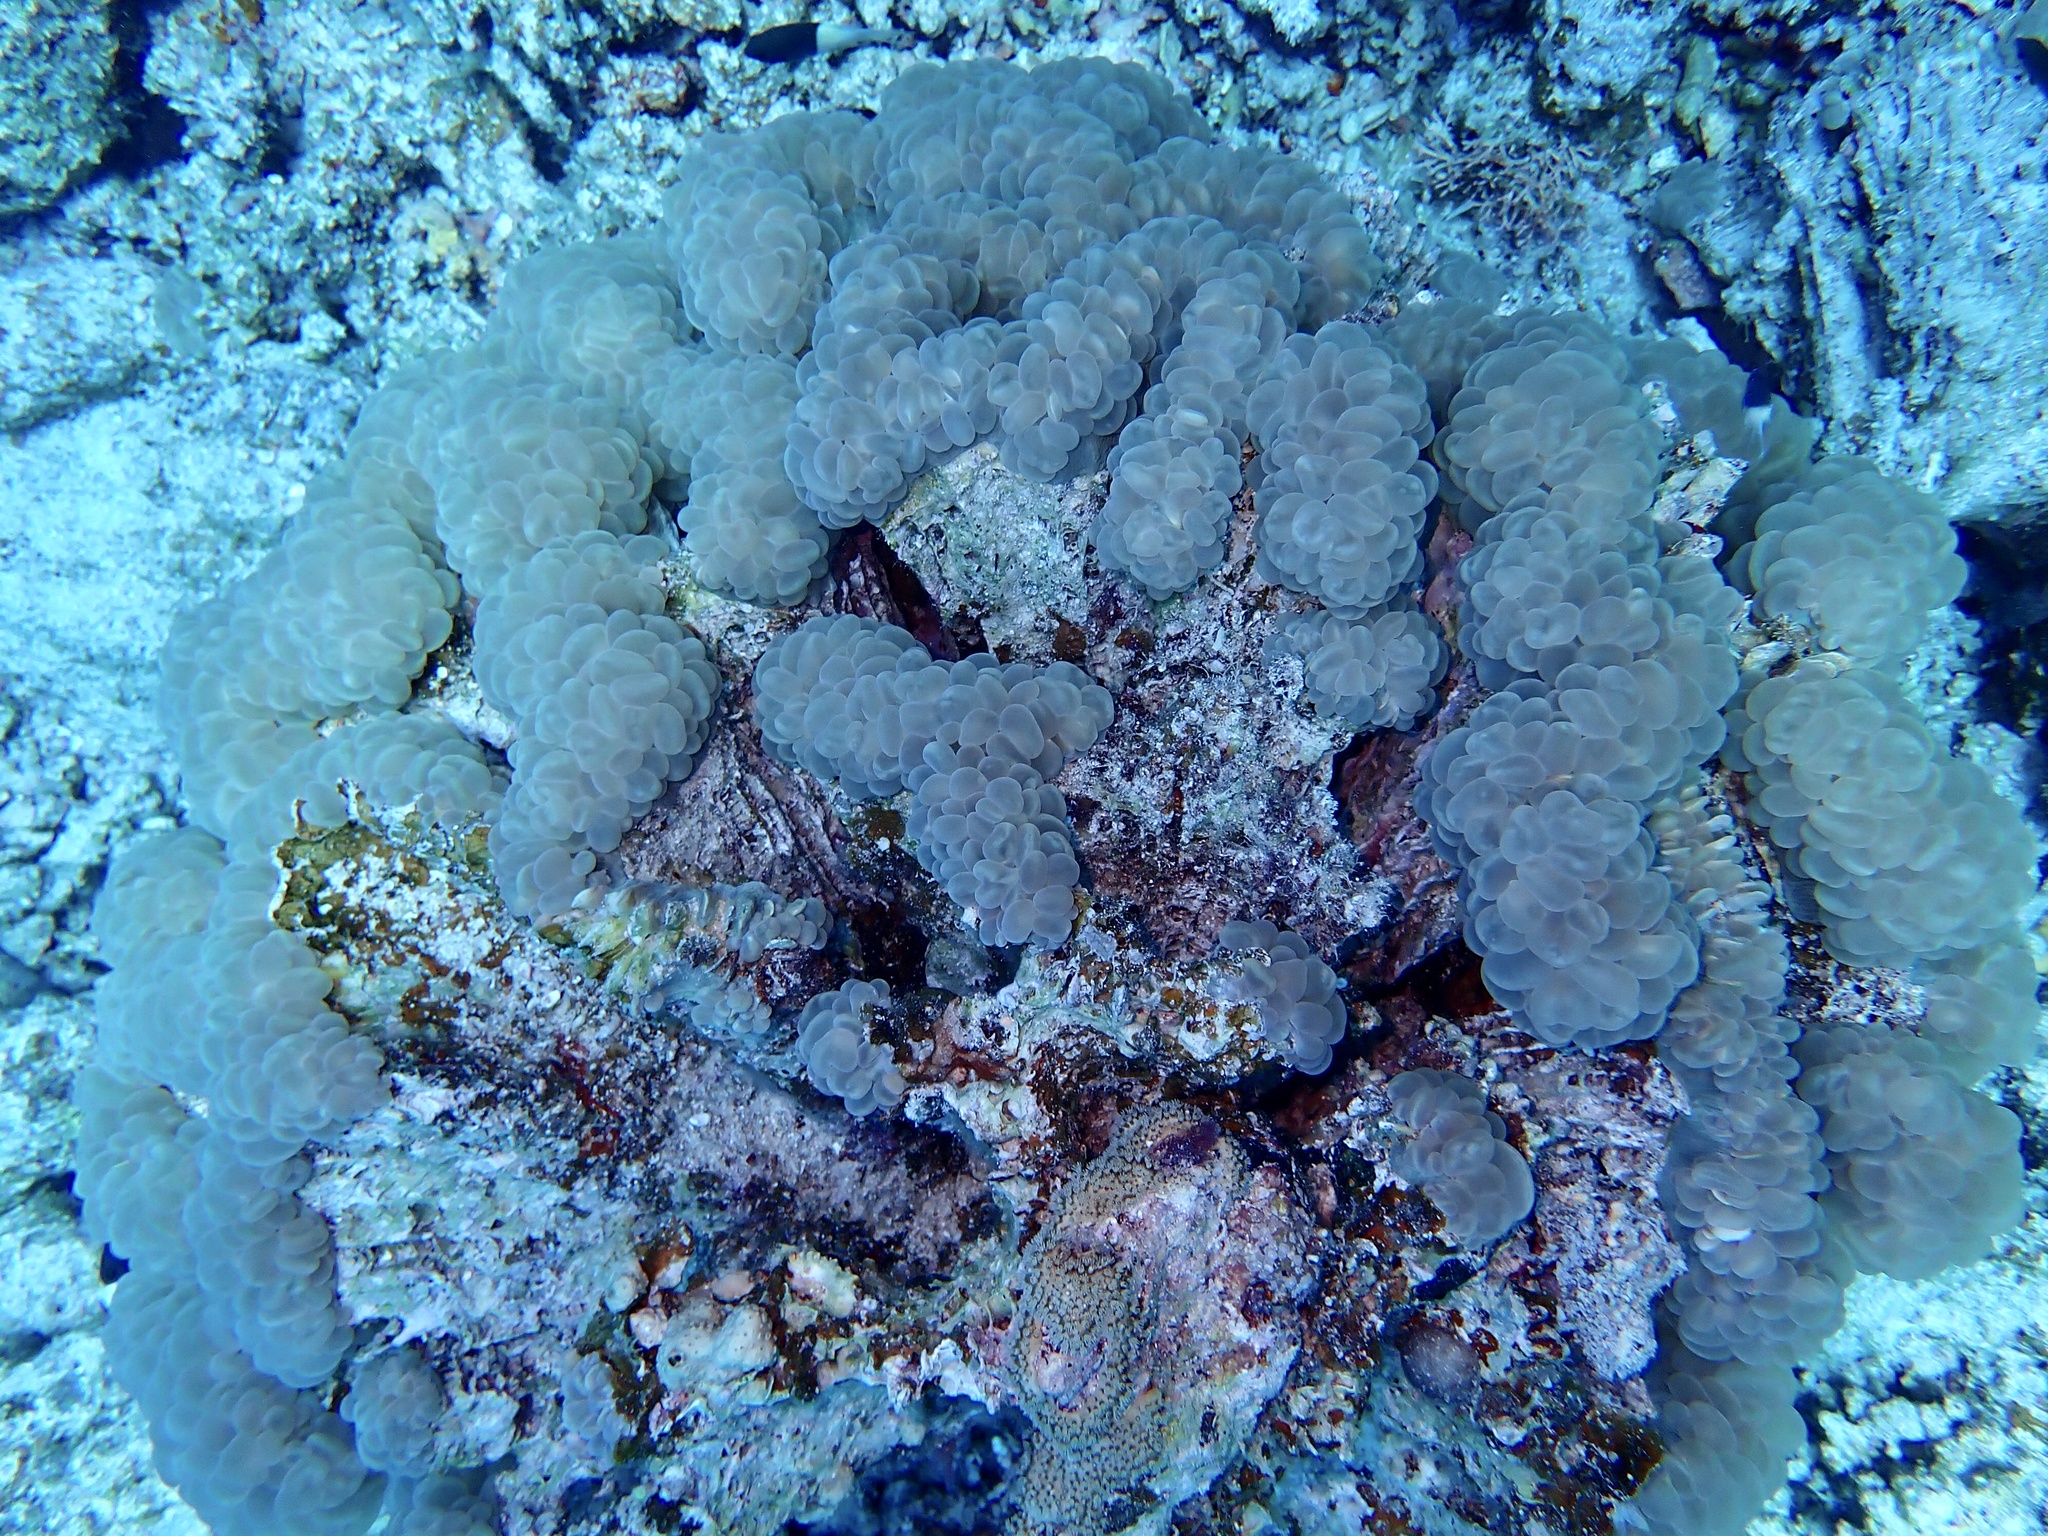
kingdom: Animalia
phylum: Cnidaria
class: Anthozoa
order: Scleractinia
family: Plerogyridae
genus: Plerogyra
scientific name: Plerogyra sinuosa
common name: Bubble coral
